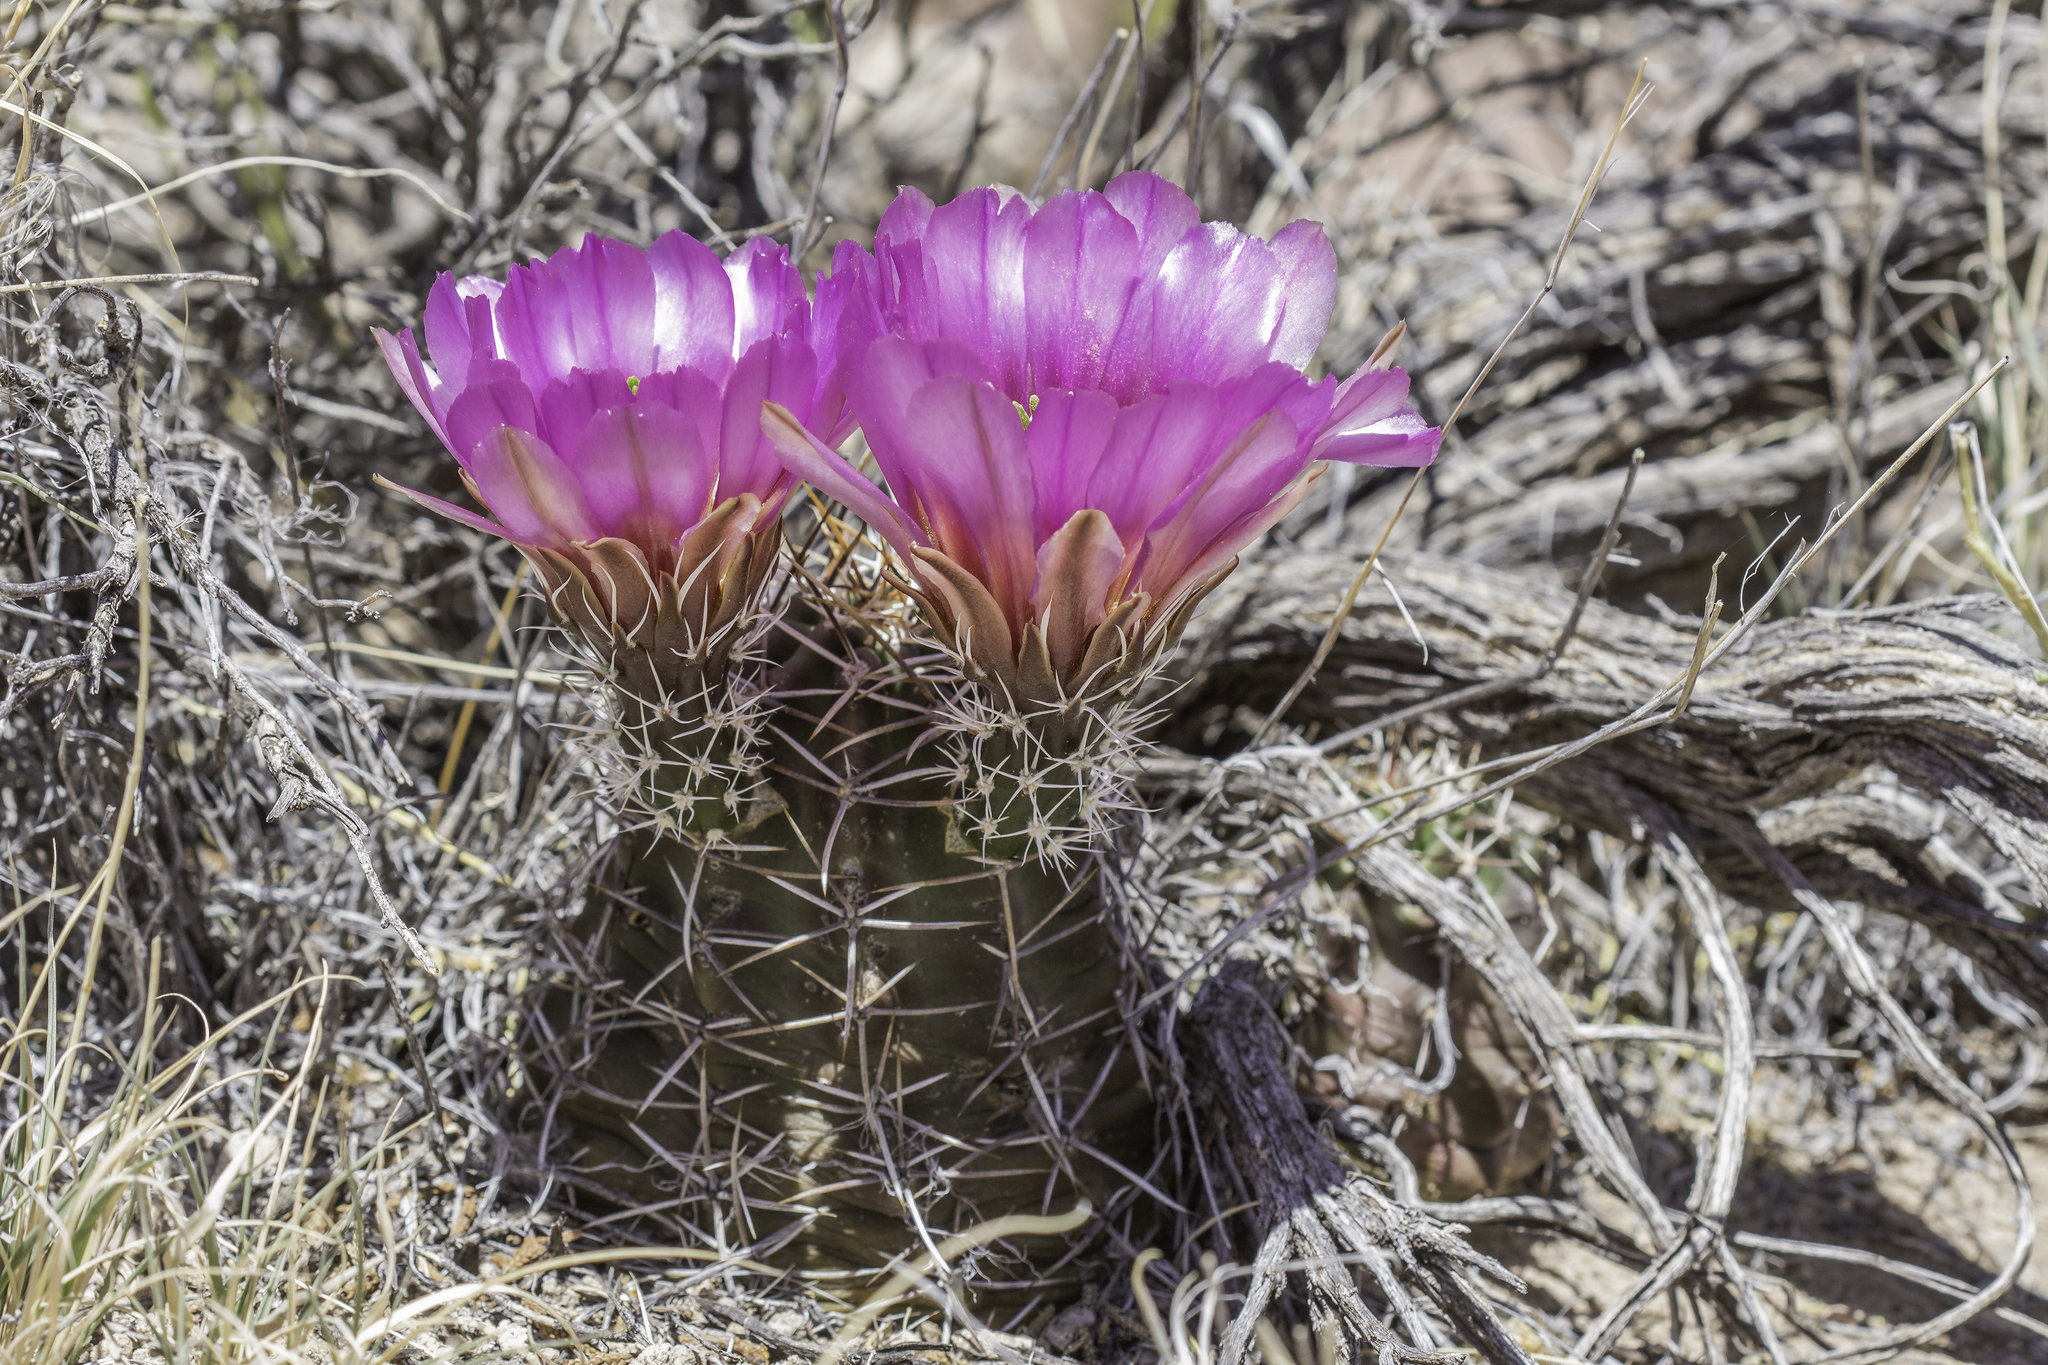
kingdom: Plantae
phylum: Tracheophyta
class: Magnoliopsida
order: Caryophyllales
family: Cactaceae
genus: Echinocereus
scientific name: Echinocereus fendleri
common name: Fendler's hedgehog cactus
